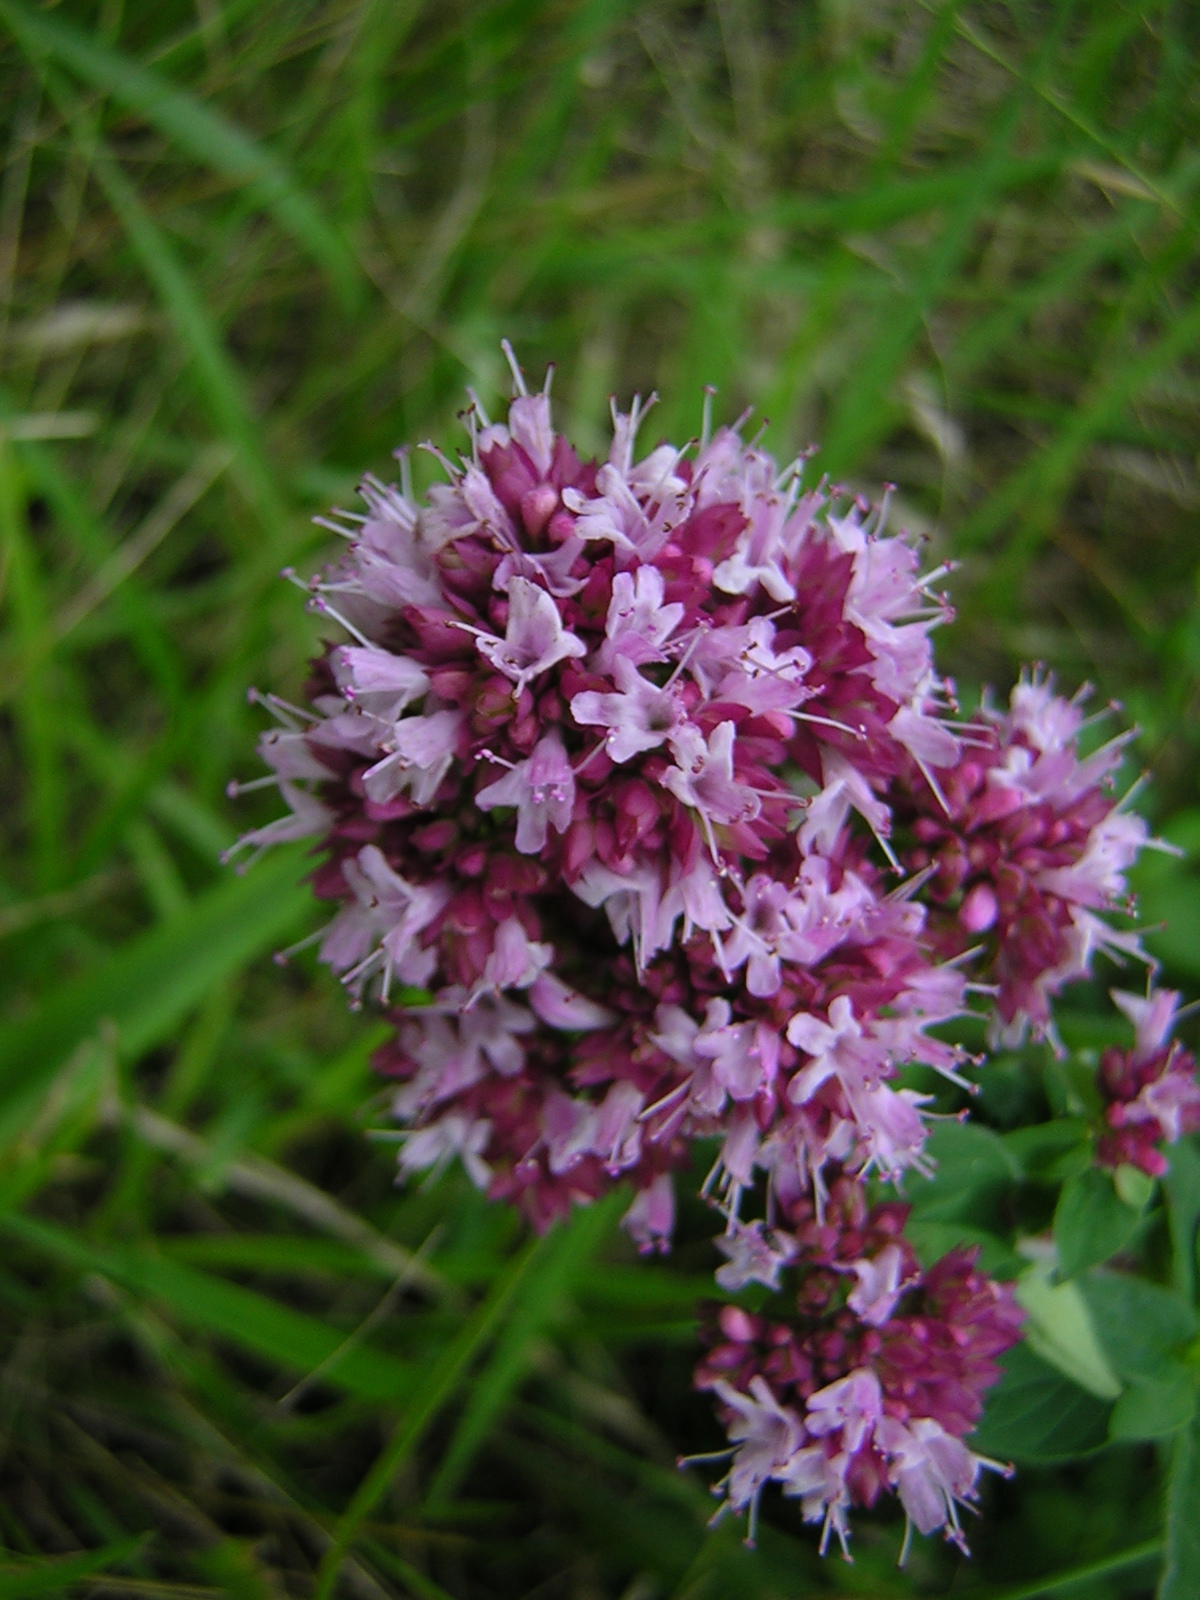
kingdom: Plantae
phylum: Tracheophyta
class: Magnoliopsida
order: Lamiales
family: Lamiaceae
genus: Origanum
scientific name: Origanum vulgare
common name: Wild marjoram
